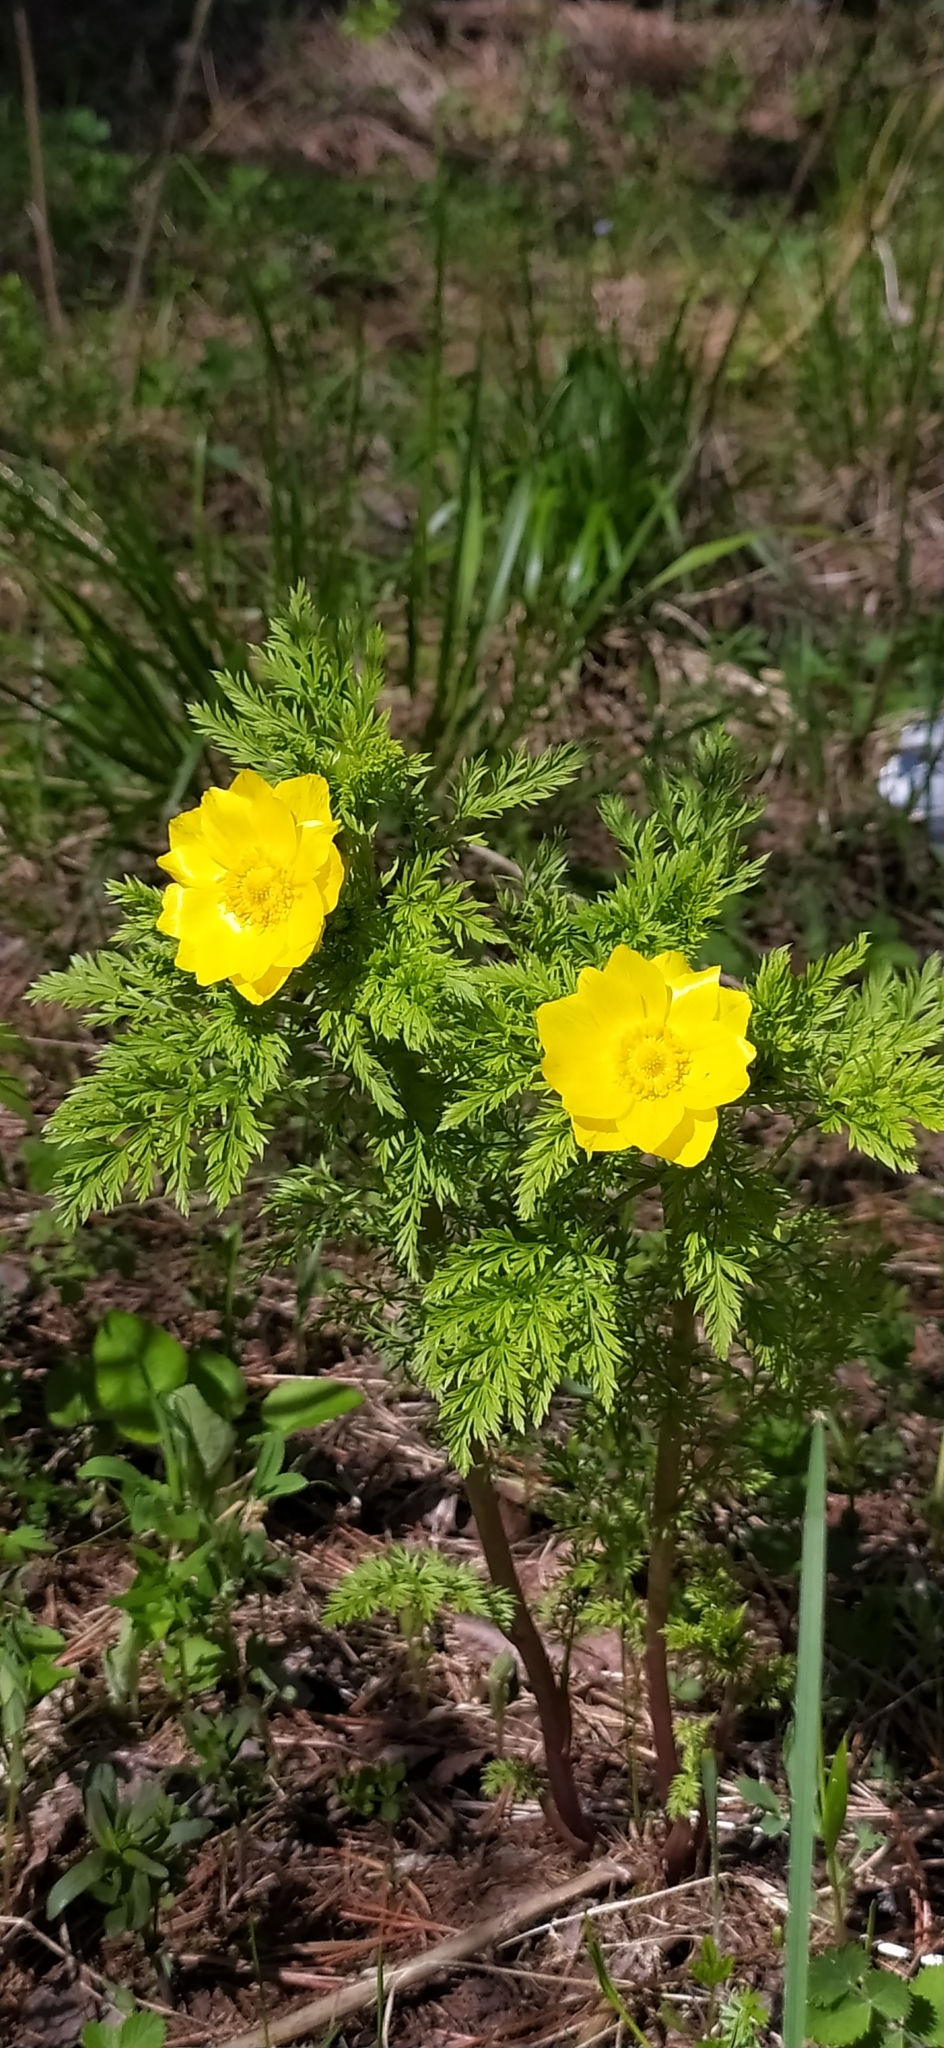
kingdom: Plantae
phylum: Tracheophyta
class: Magnoliopsida
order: Ranunculales
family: Ranunculaceae
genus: Adonis
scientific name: Adonis
